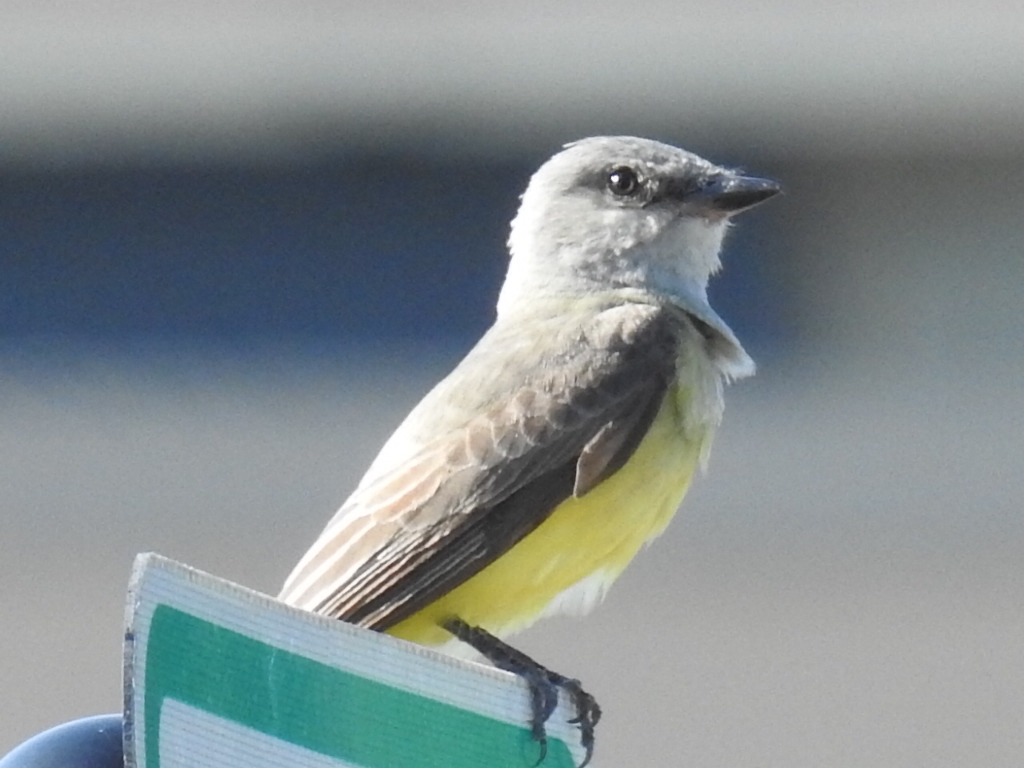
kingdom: Animalia
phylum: Chordata
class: Aves
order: Passeriformes
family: Tyrannidae
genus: Tyrannus
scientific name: Tyrannus verticalis
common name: Western kingbird
